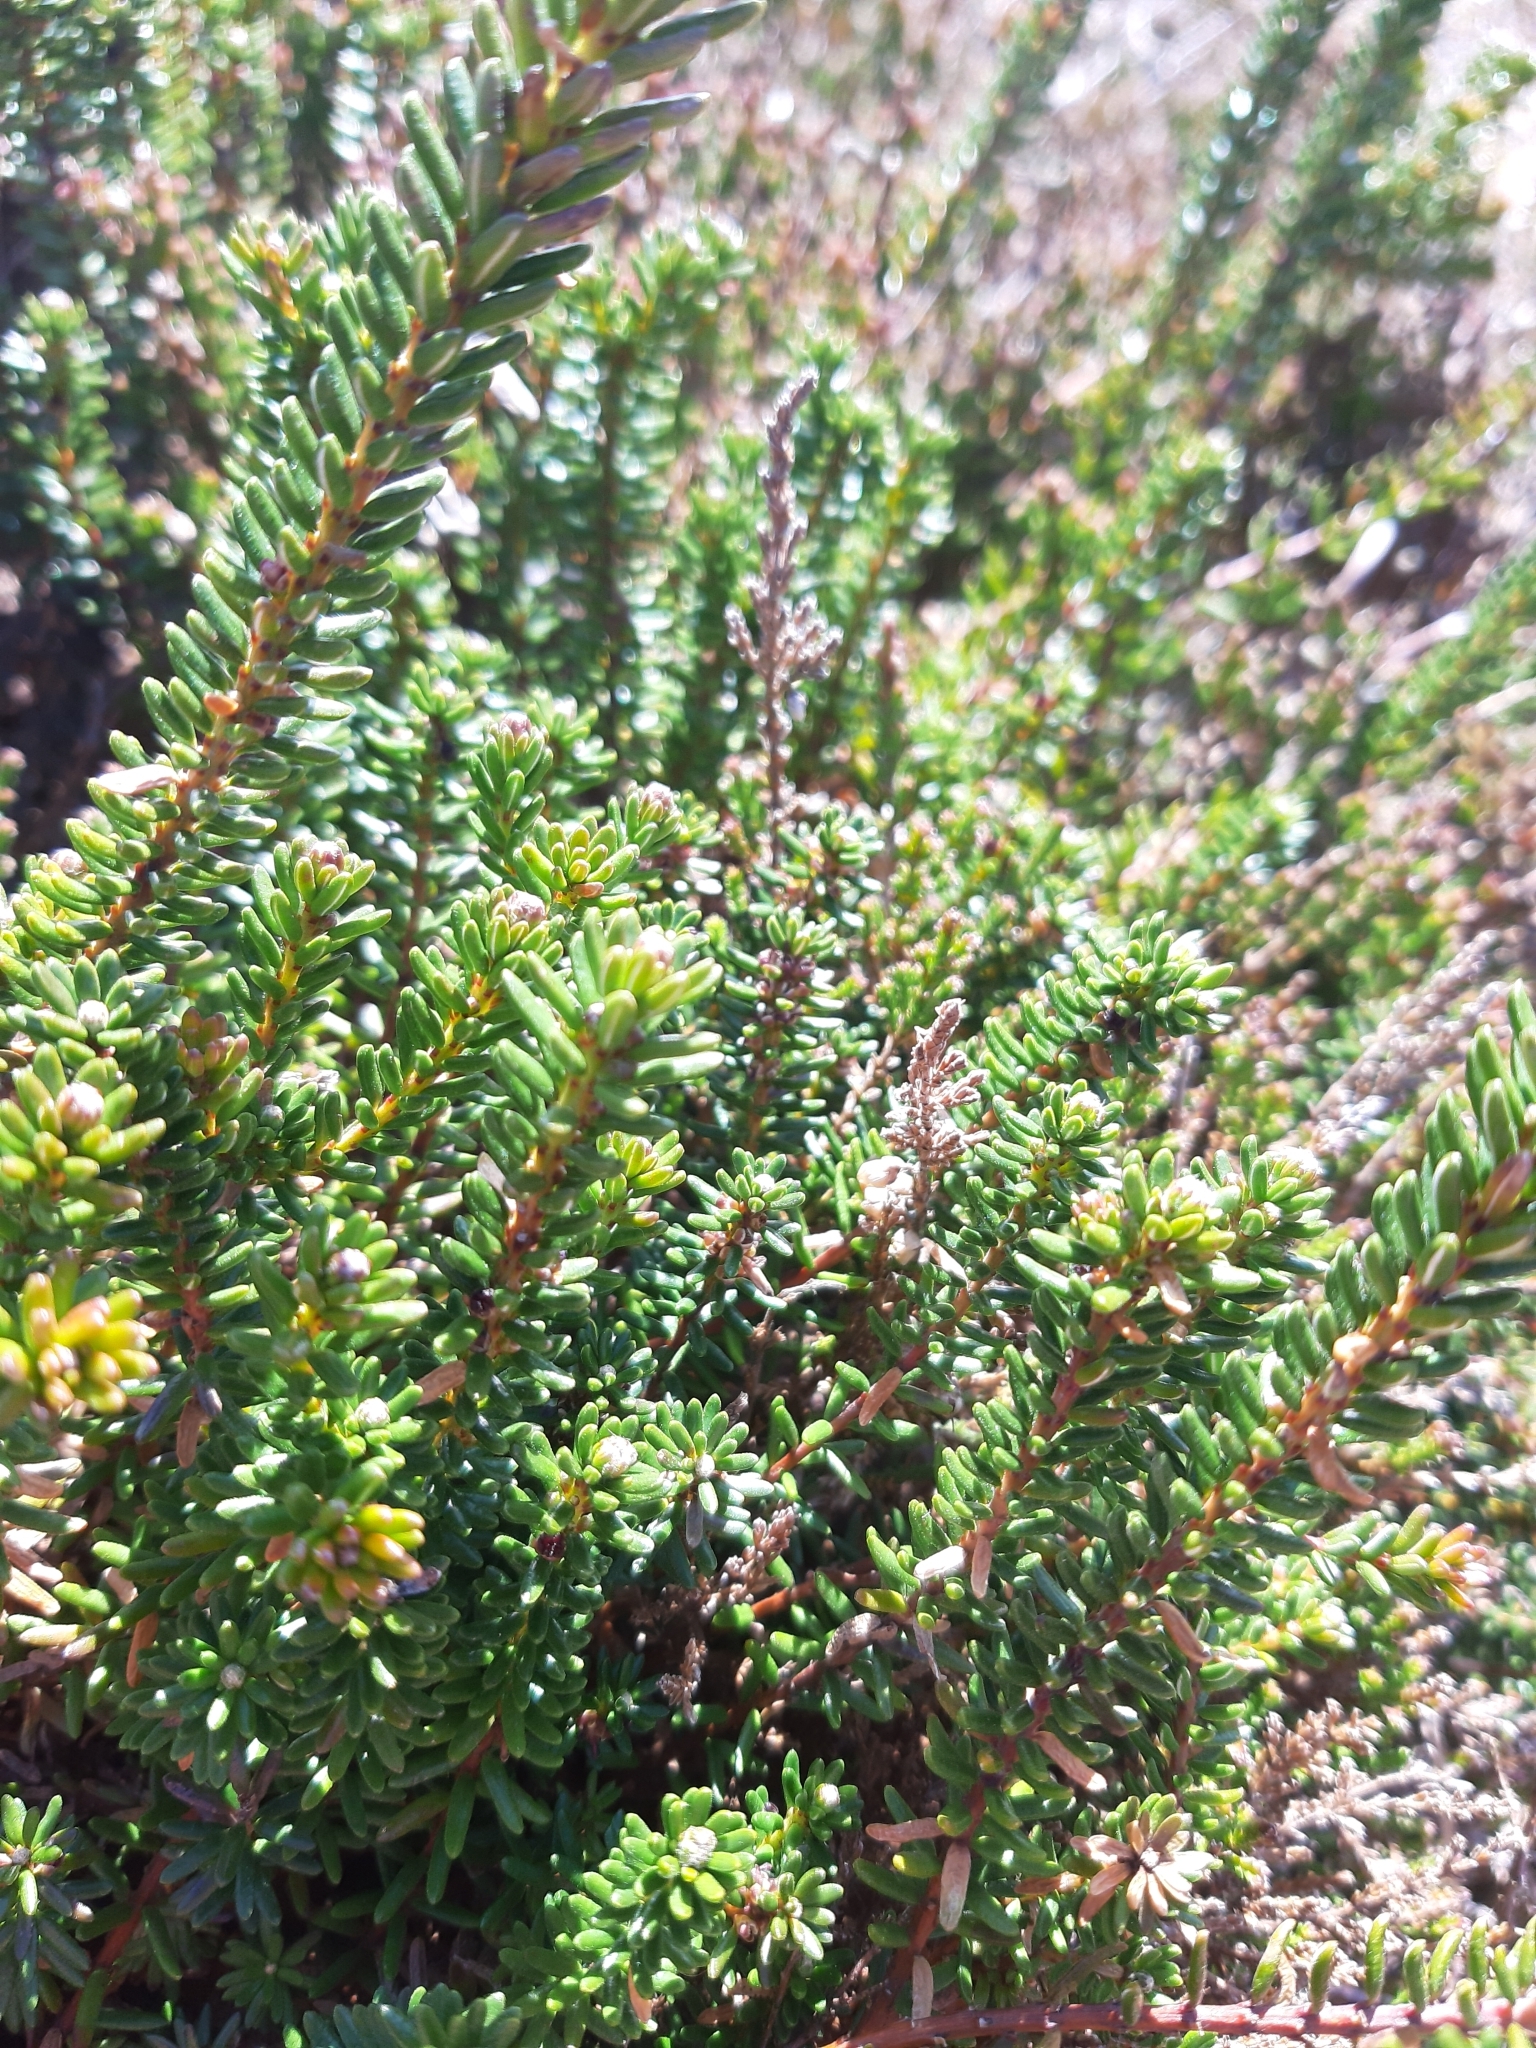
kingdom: Plantae
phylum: Tracheophyta
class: Magnoliopsida
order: Ericales
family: Ericaceae
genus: Empetrum
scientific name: Empetrum nigrum
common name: Black crowberry
